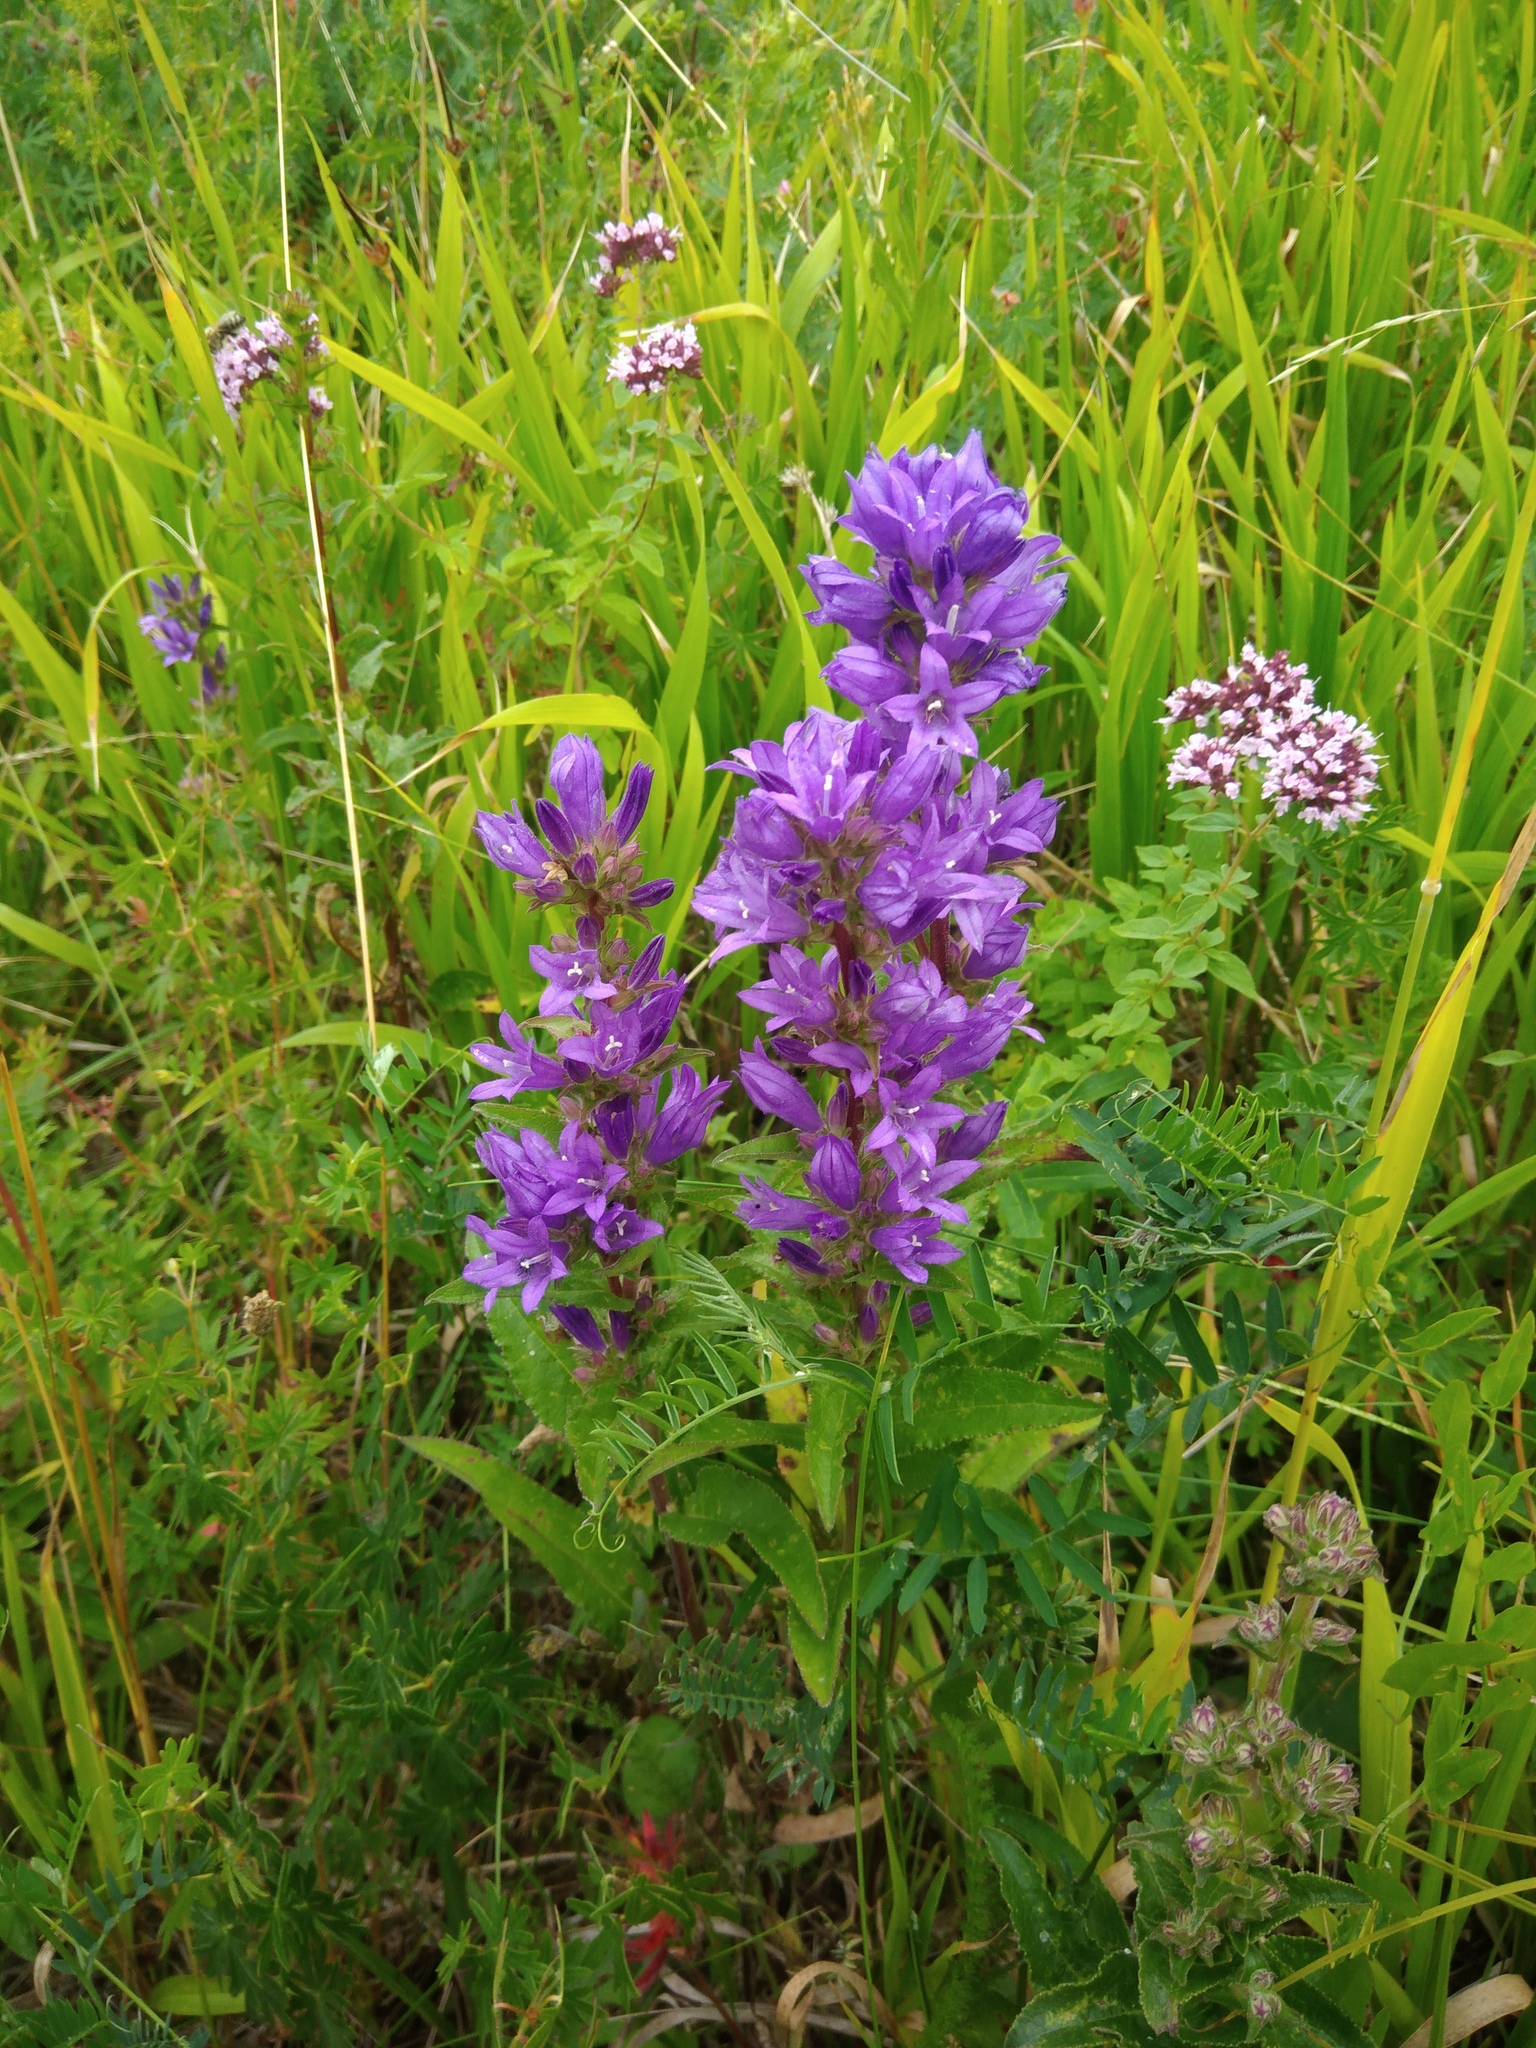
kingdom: Plantae
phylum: Tracheophyta
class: Magnoliopsida
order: Asterales
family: Campanulaceae
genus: Campanula
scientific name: Campanula glomerata
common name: Clustered bellflower
